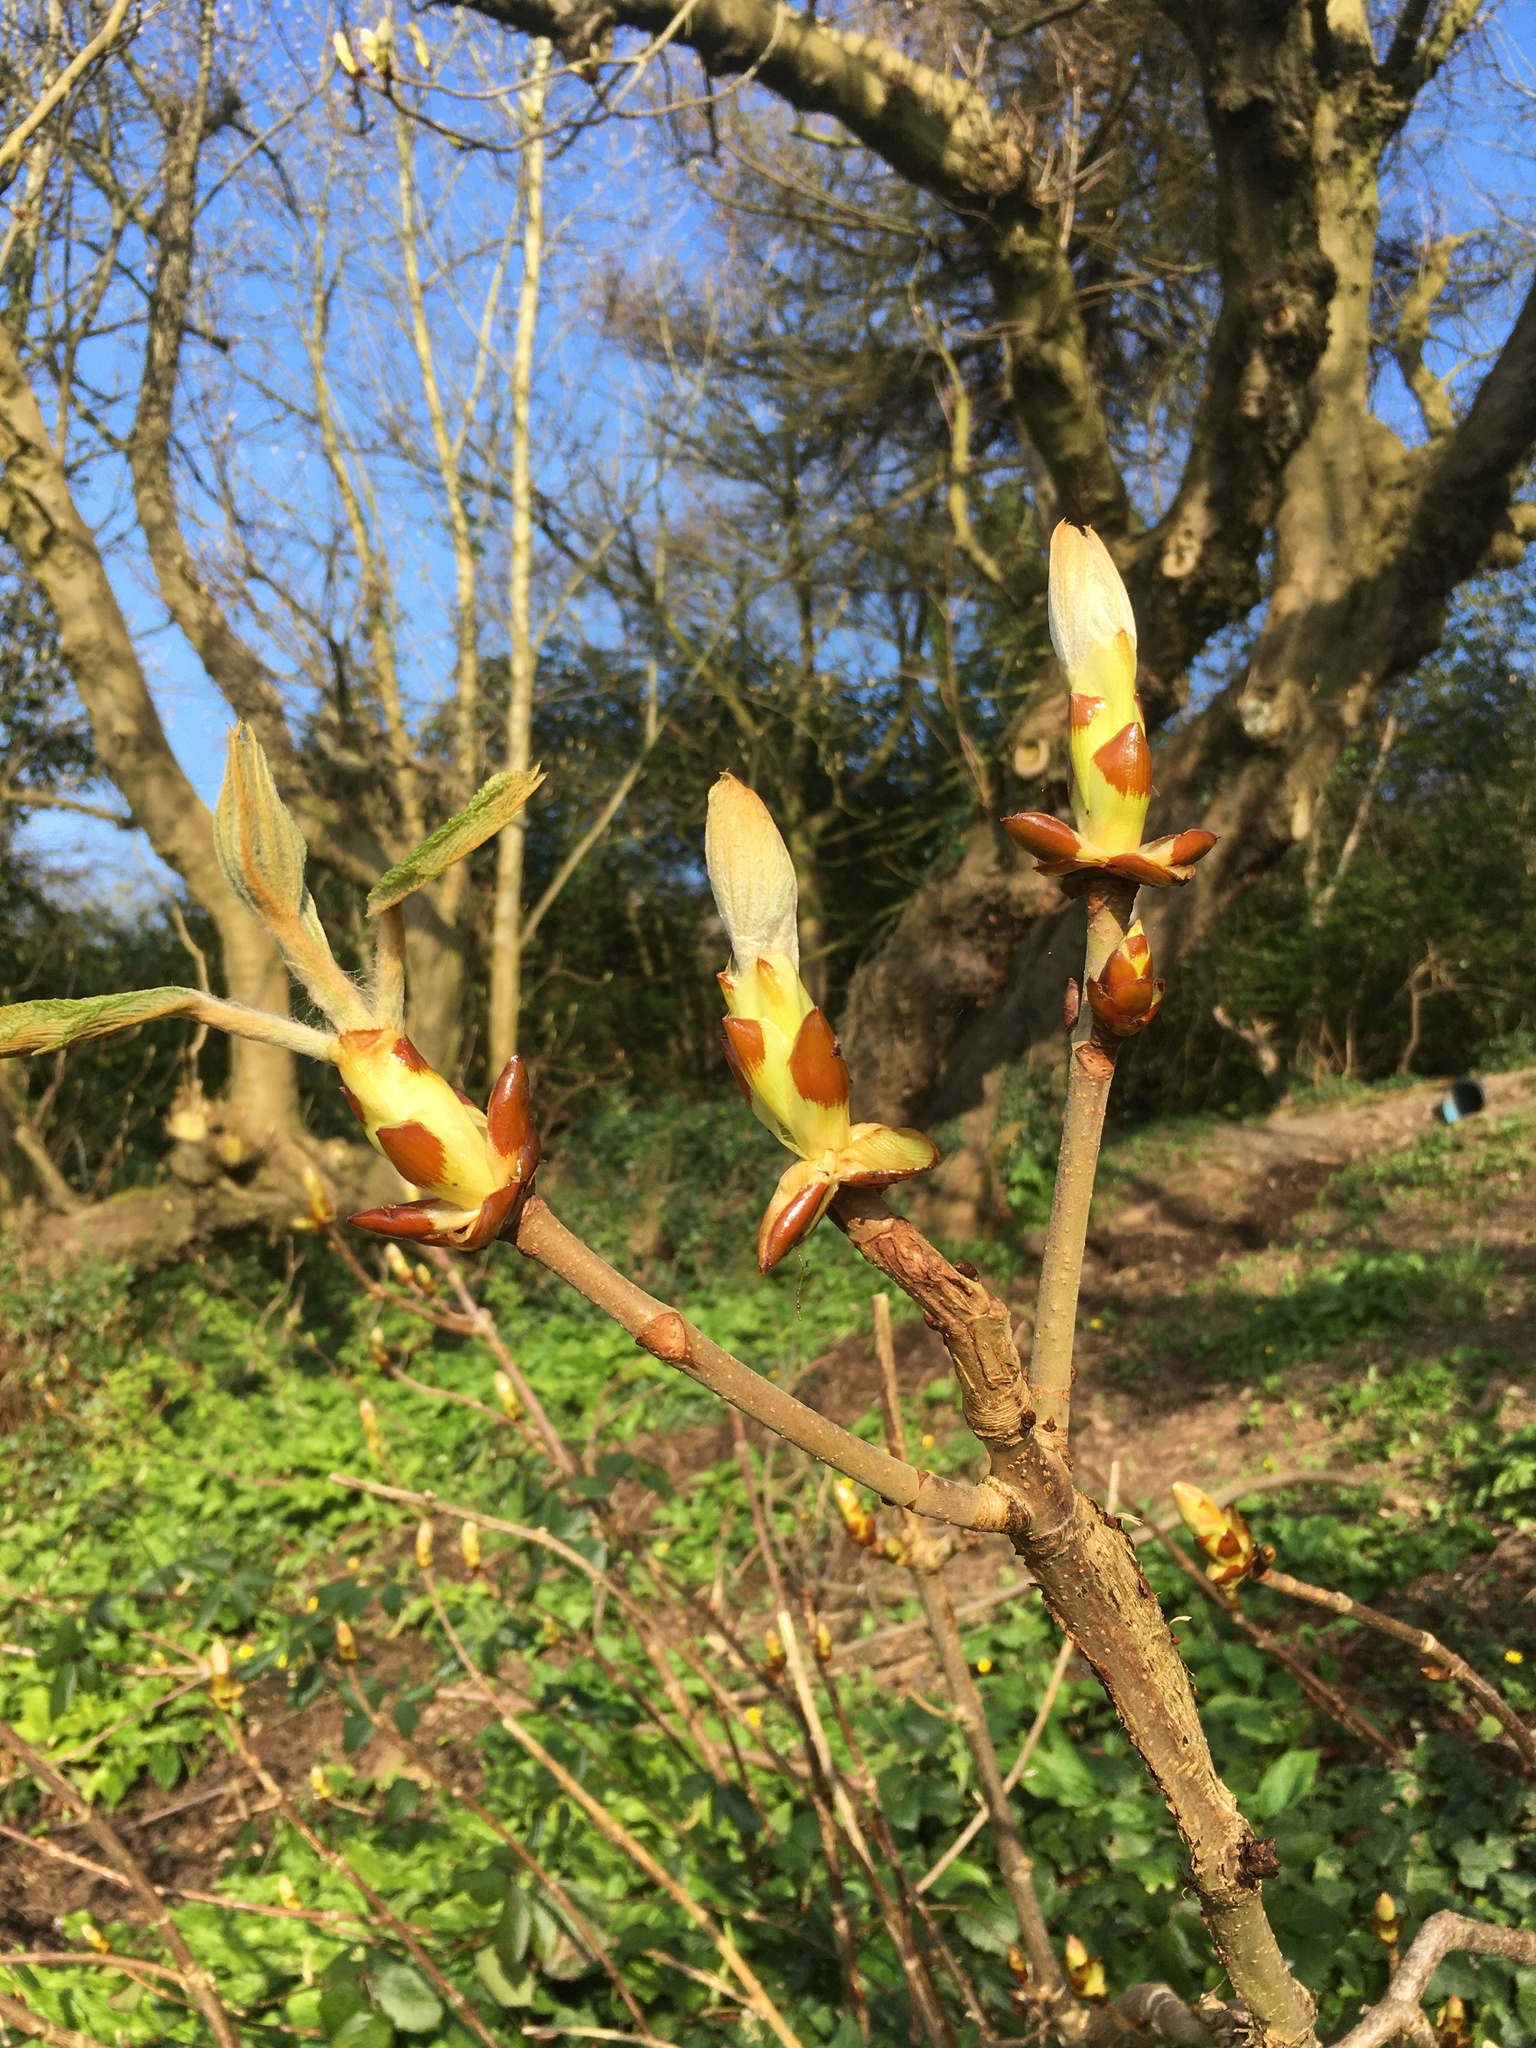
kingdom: Plantae
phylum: Tracheophyta
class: Magnoliopsida
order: Sapindales
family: Sapindaceae
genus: Aesculus
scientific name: Aesculus hippocastanum
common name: Horse-chestnut
